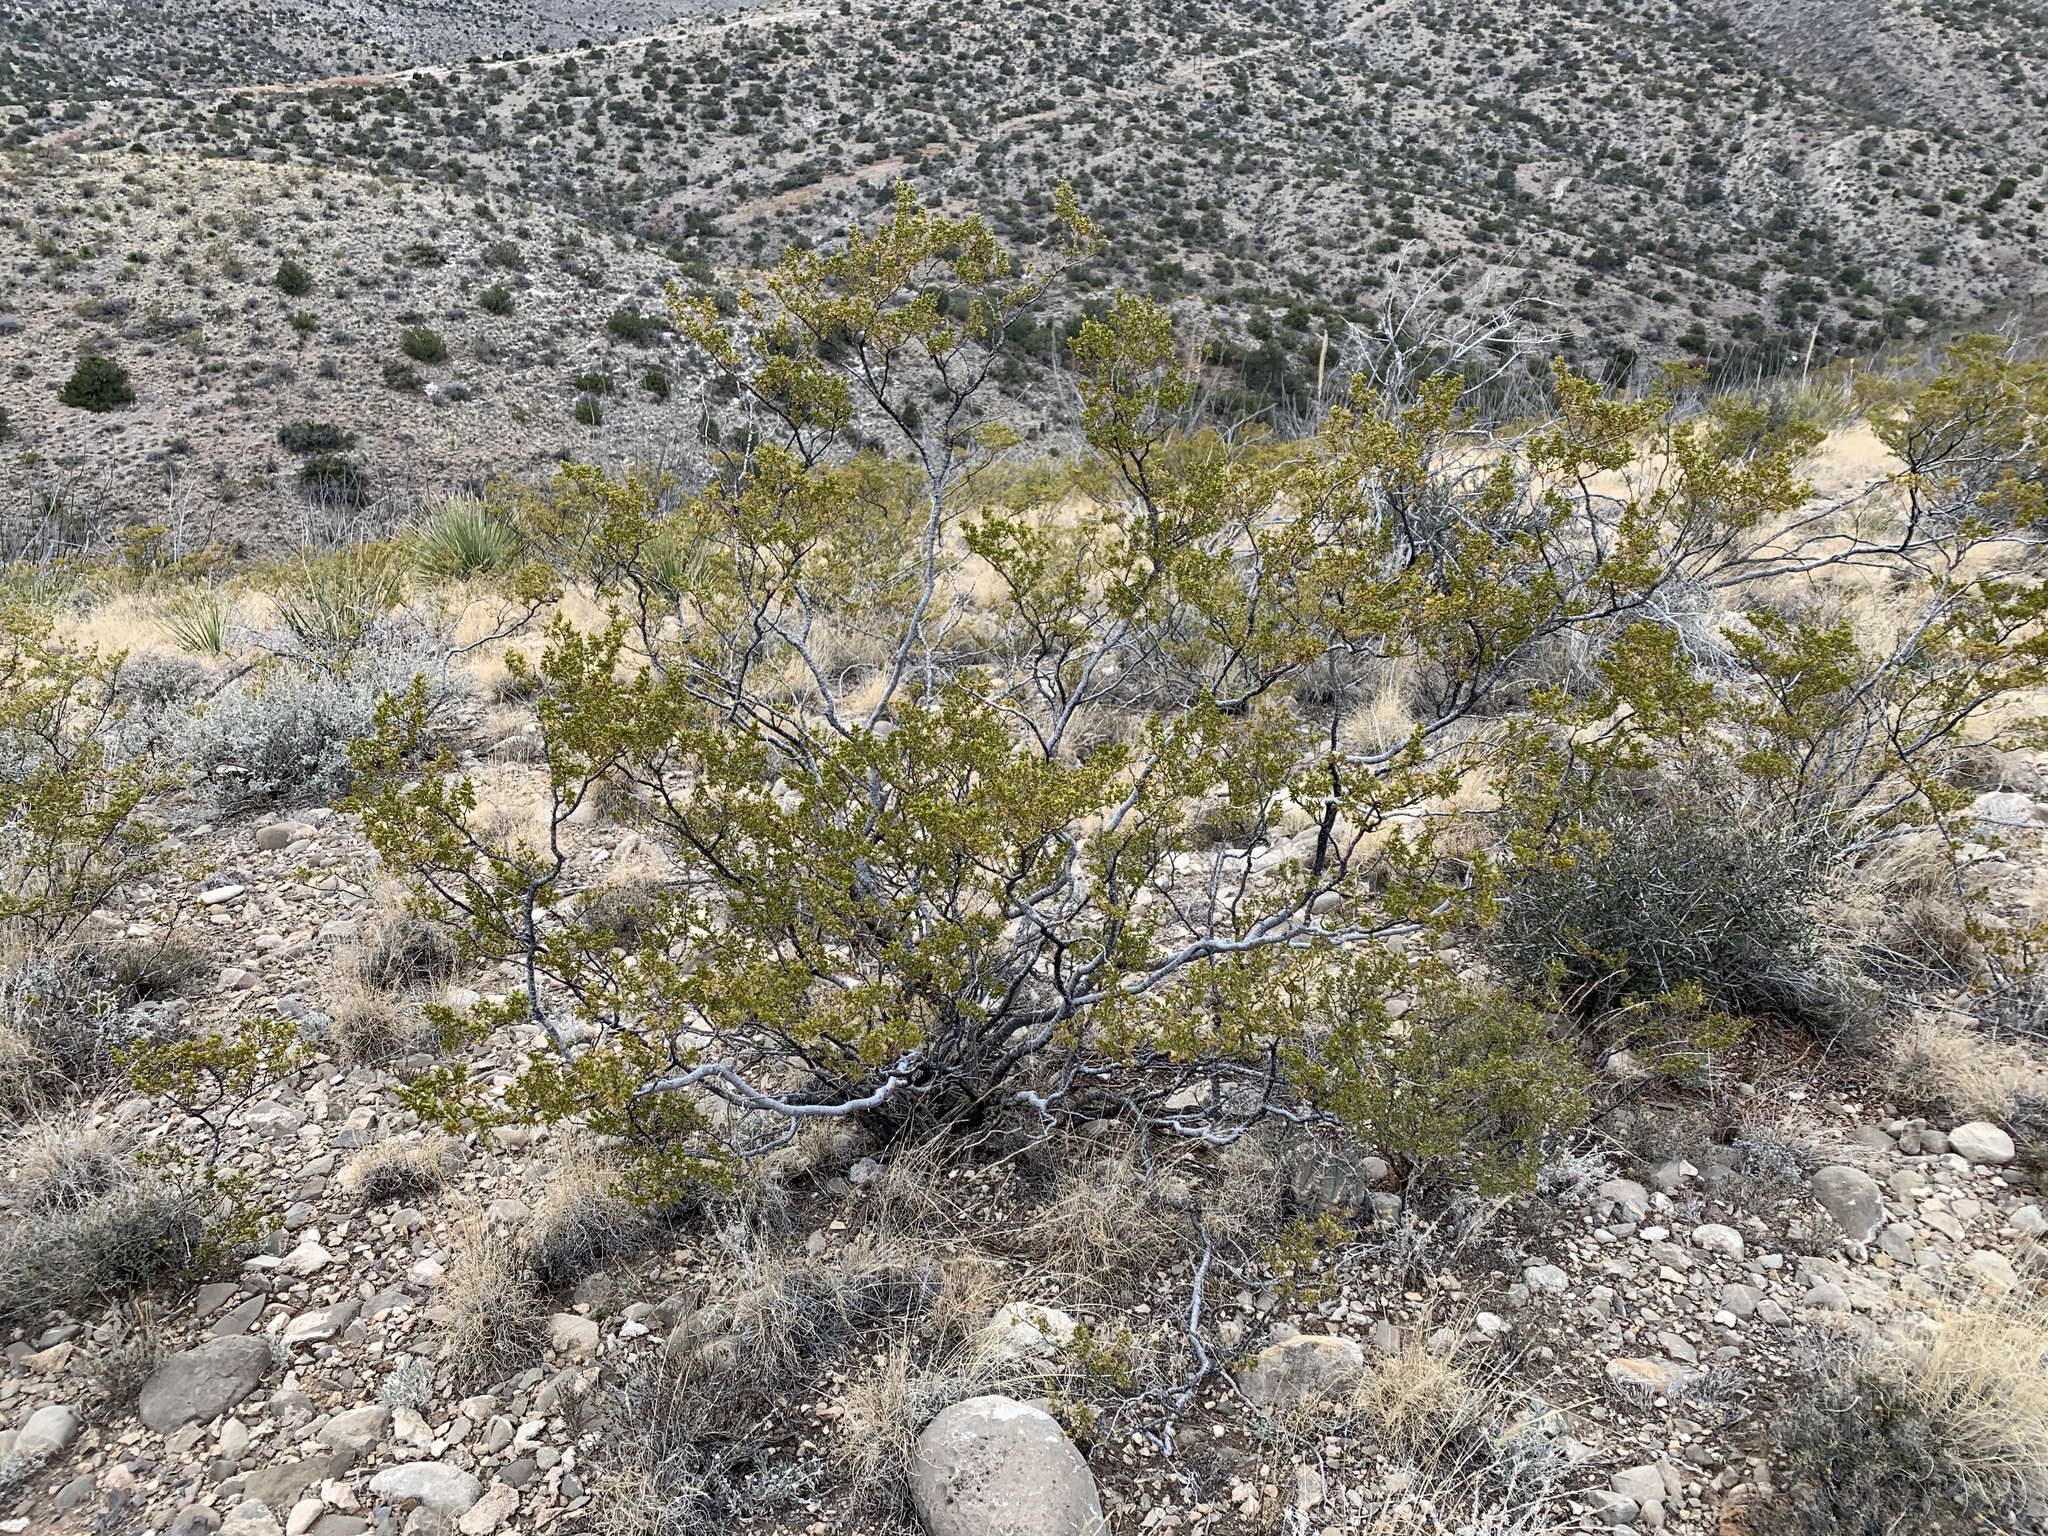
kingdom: Plantae
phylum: Tracheophyta
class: Magnoliopsida
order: Zygophyllales
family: Zygophyllaceae
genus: Larrea
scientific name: Larrea tridentata
